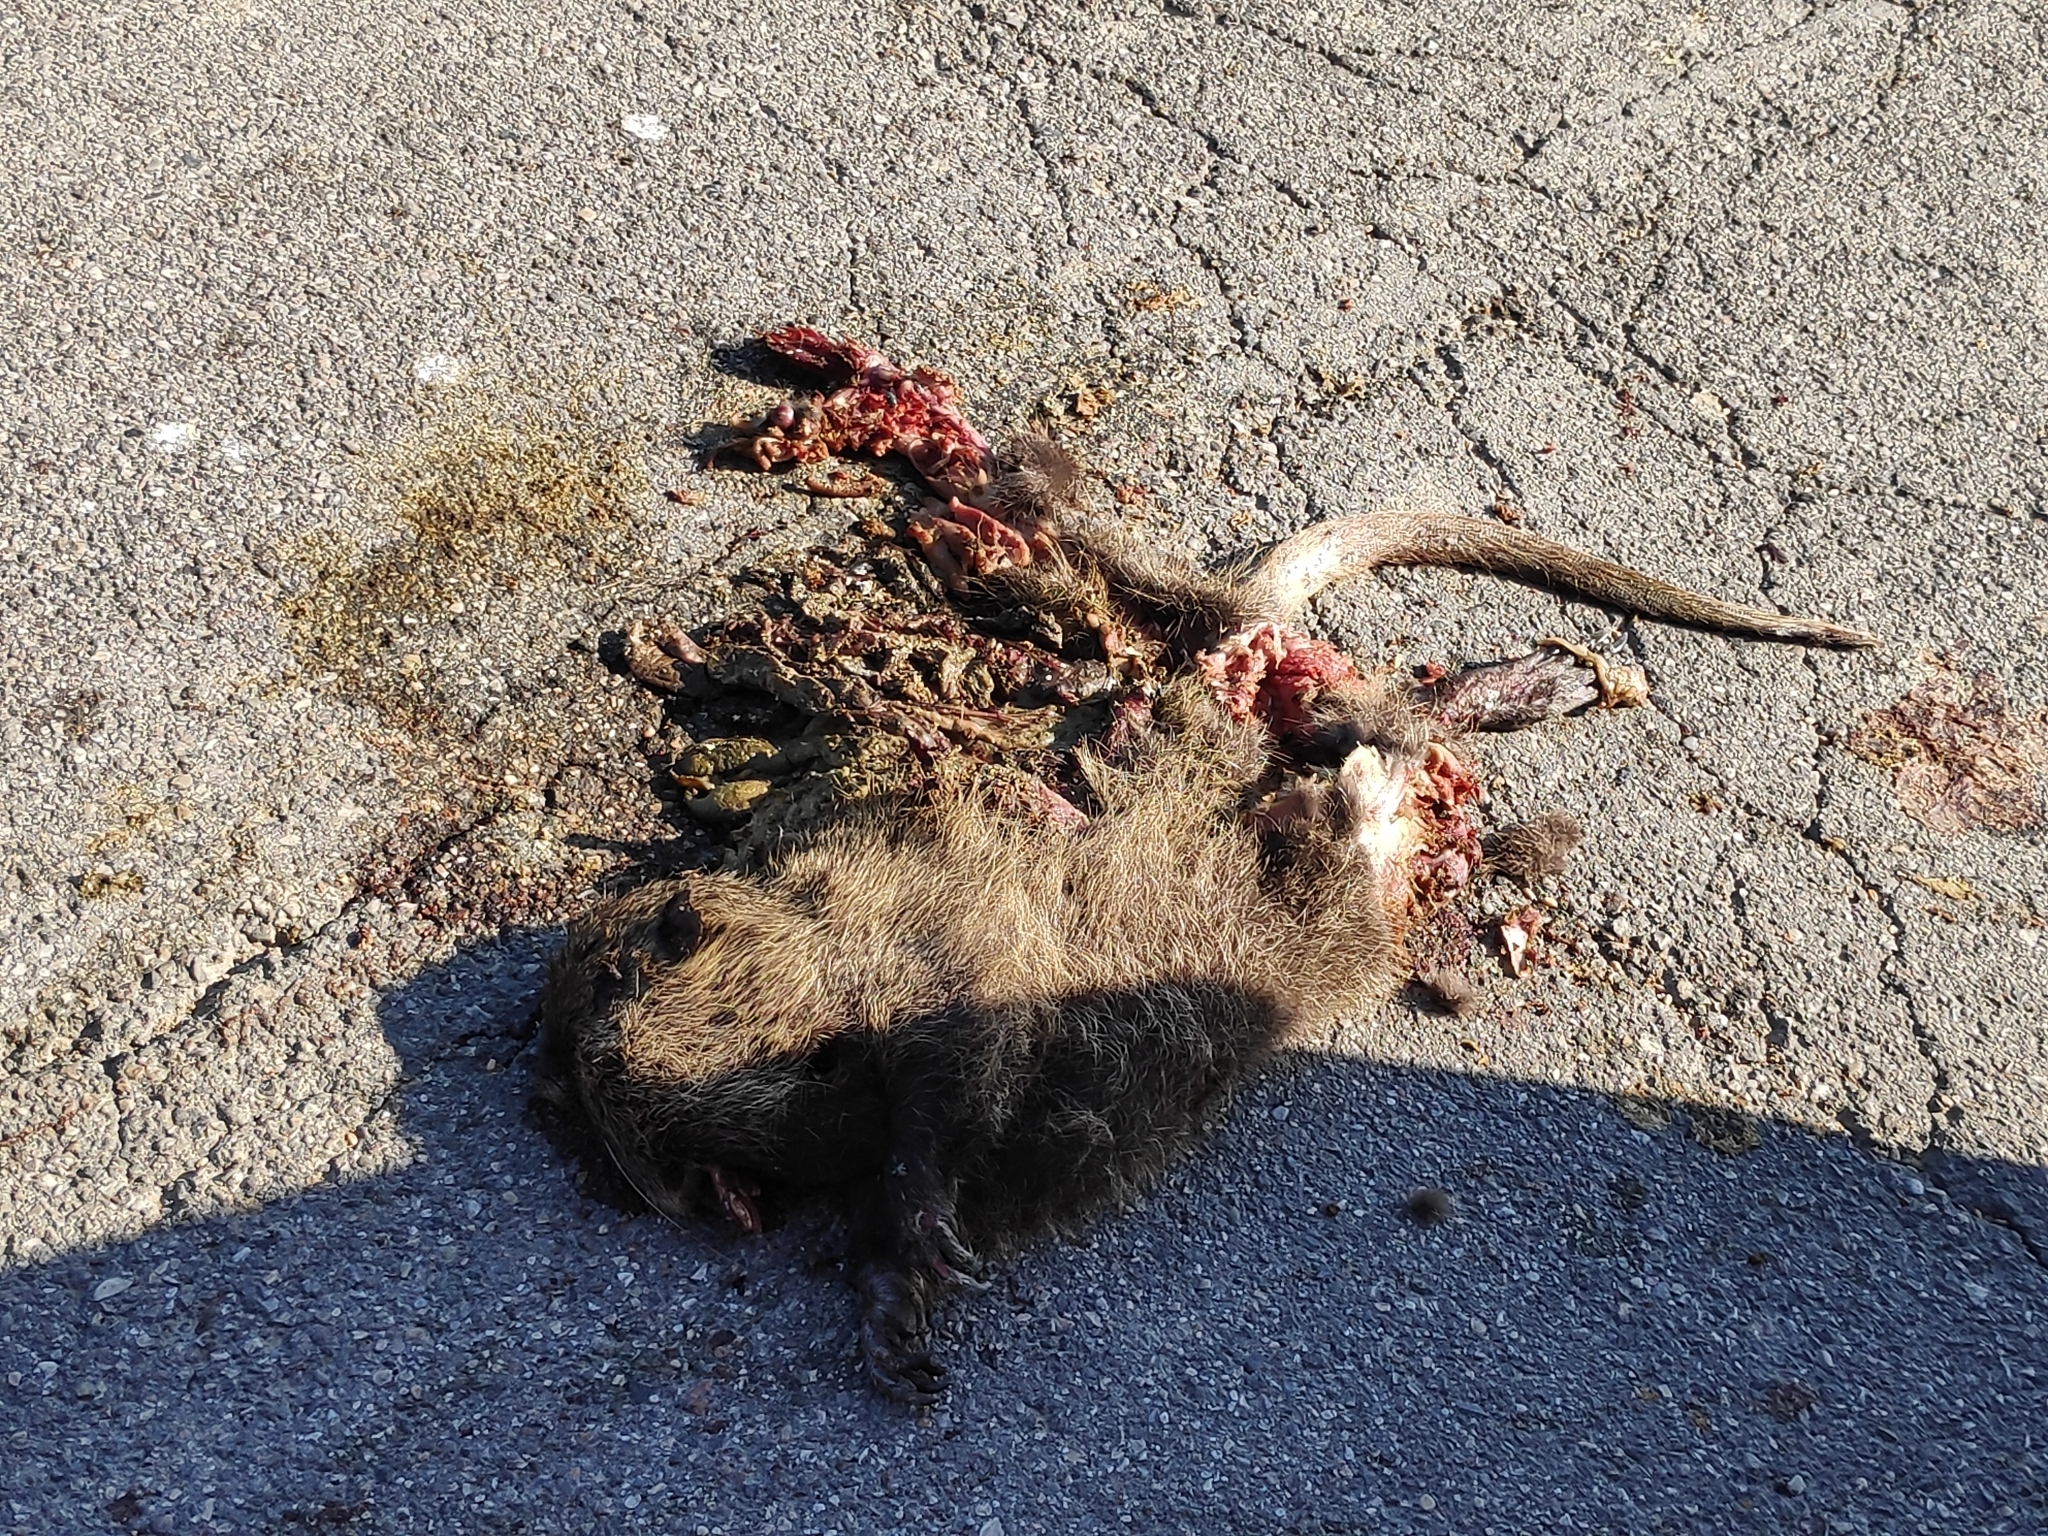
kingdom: Animalia
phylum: Chordata
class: Mammalia
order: Rodentia
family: Myocastoridae
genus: Myocastor
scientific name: Myocastor coypus
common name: Coypu
